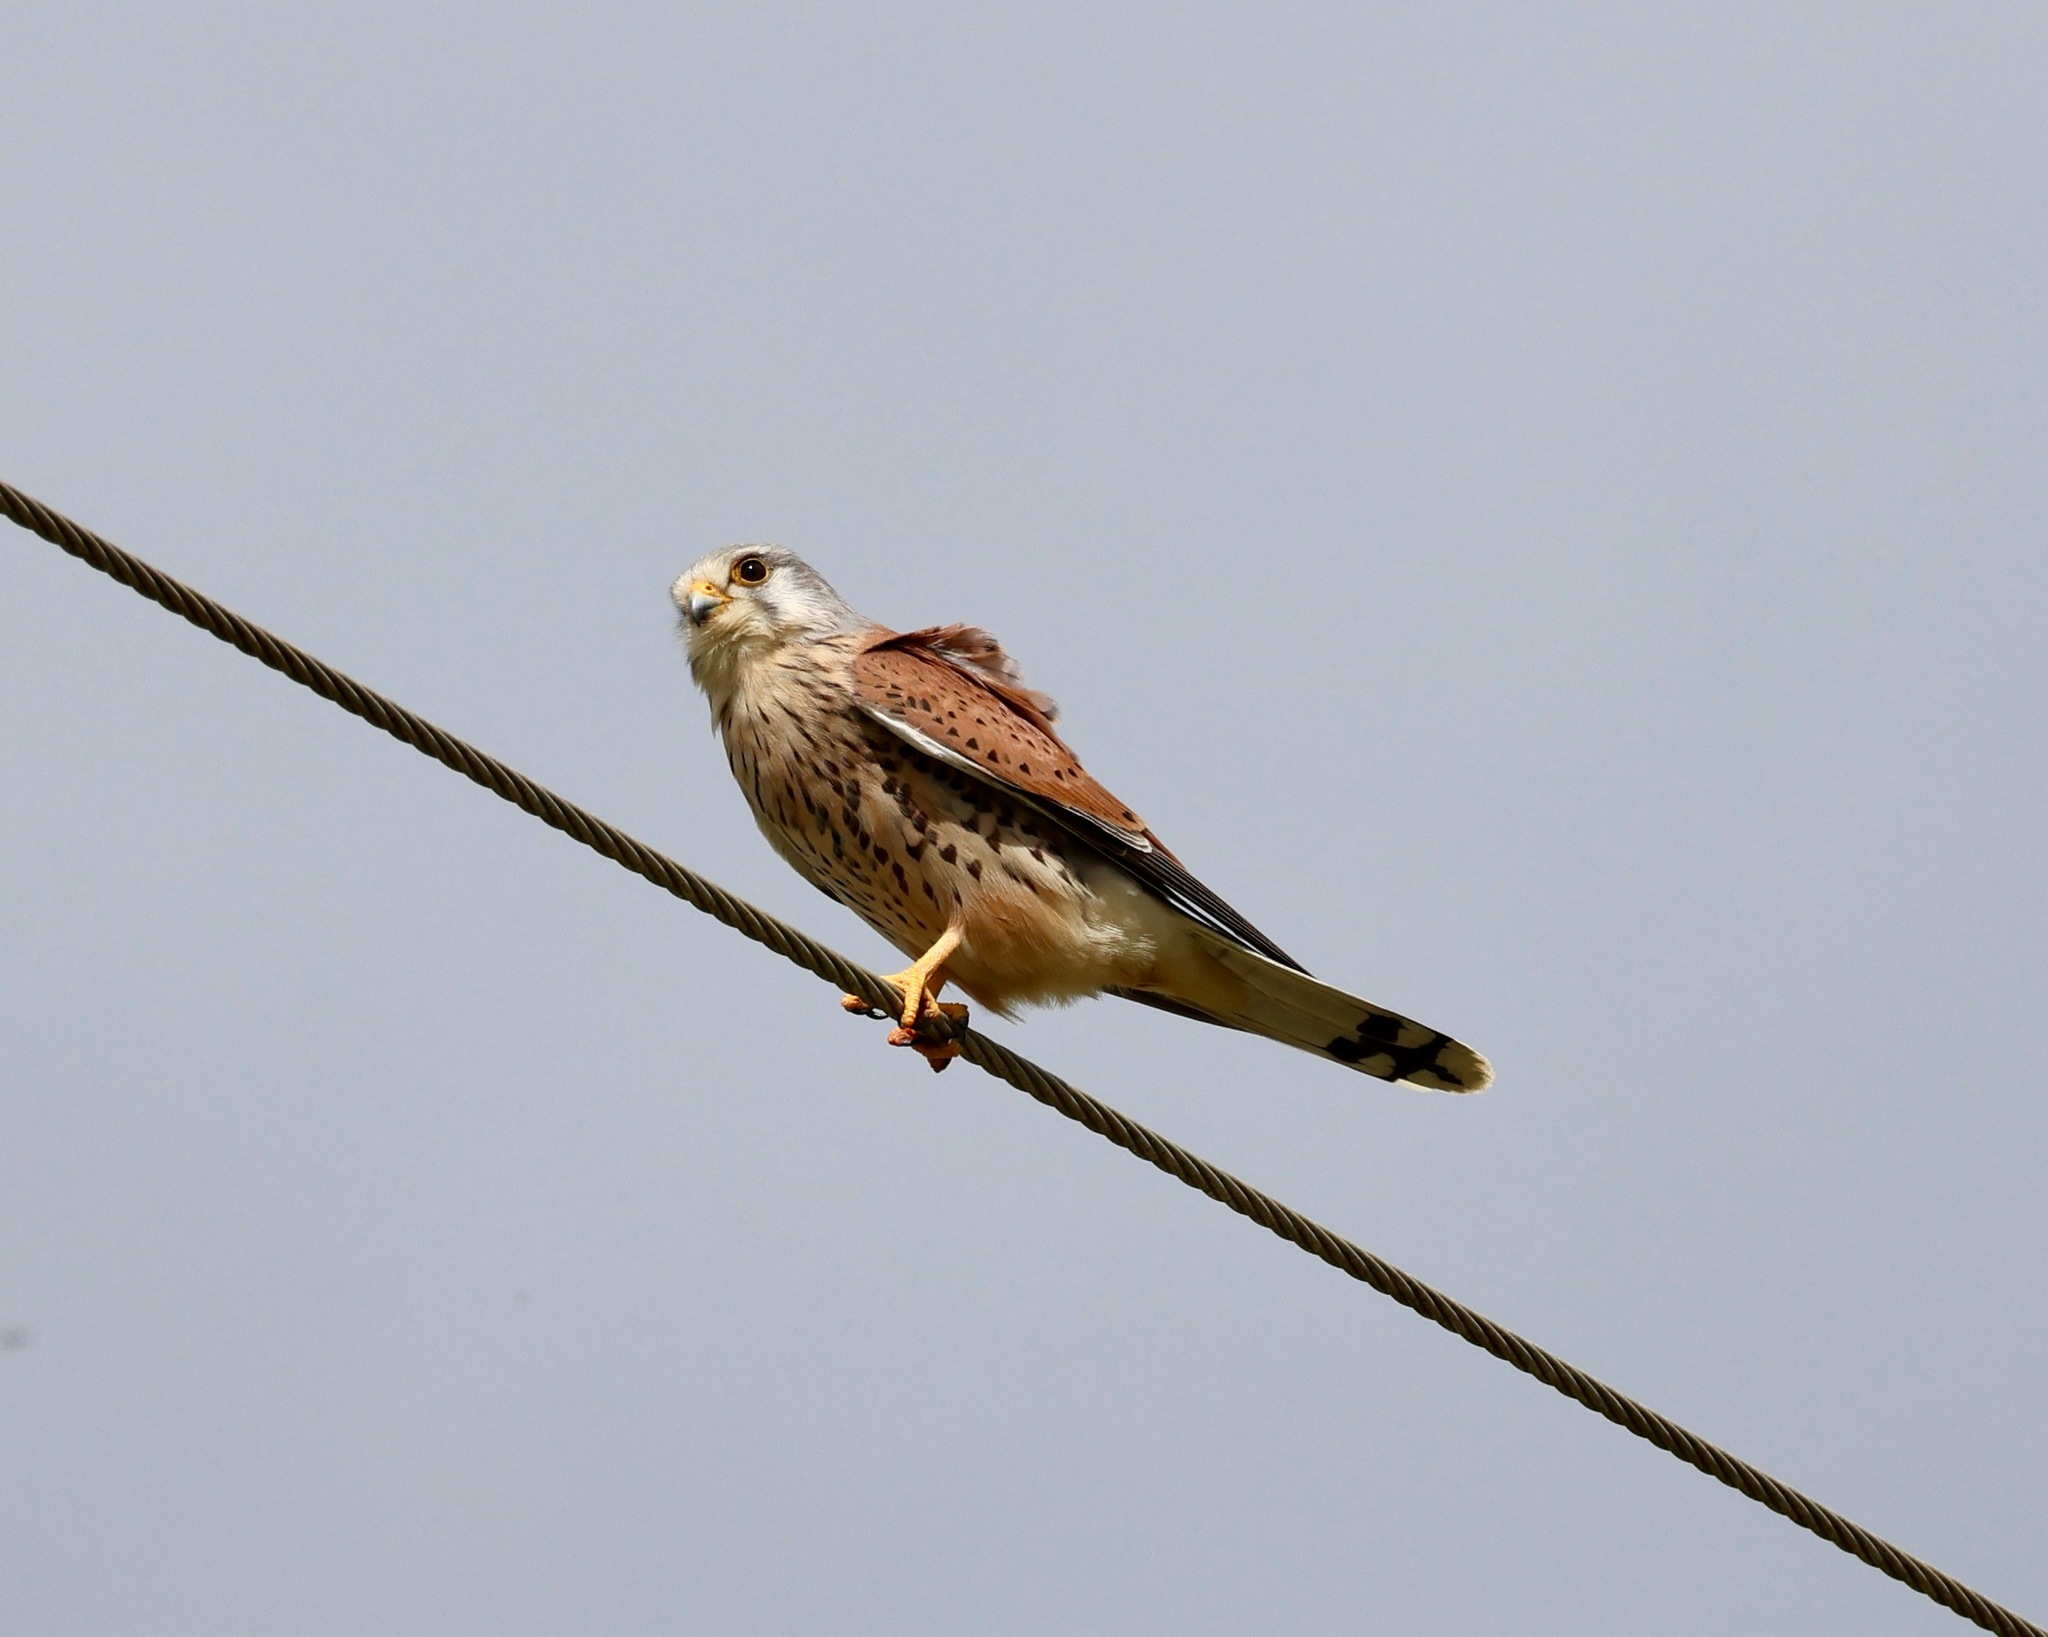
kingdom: Animalia
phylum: Chordata
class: Aves
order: Falconiformes
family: Falconidae
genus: Falco
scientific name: Falco tinnunculus
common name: Common kestrel
